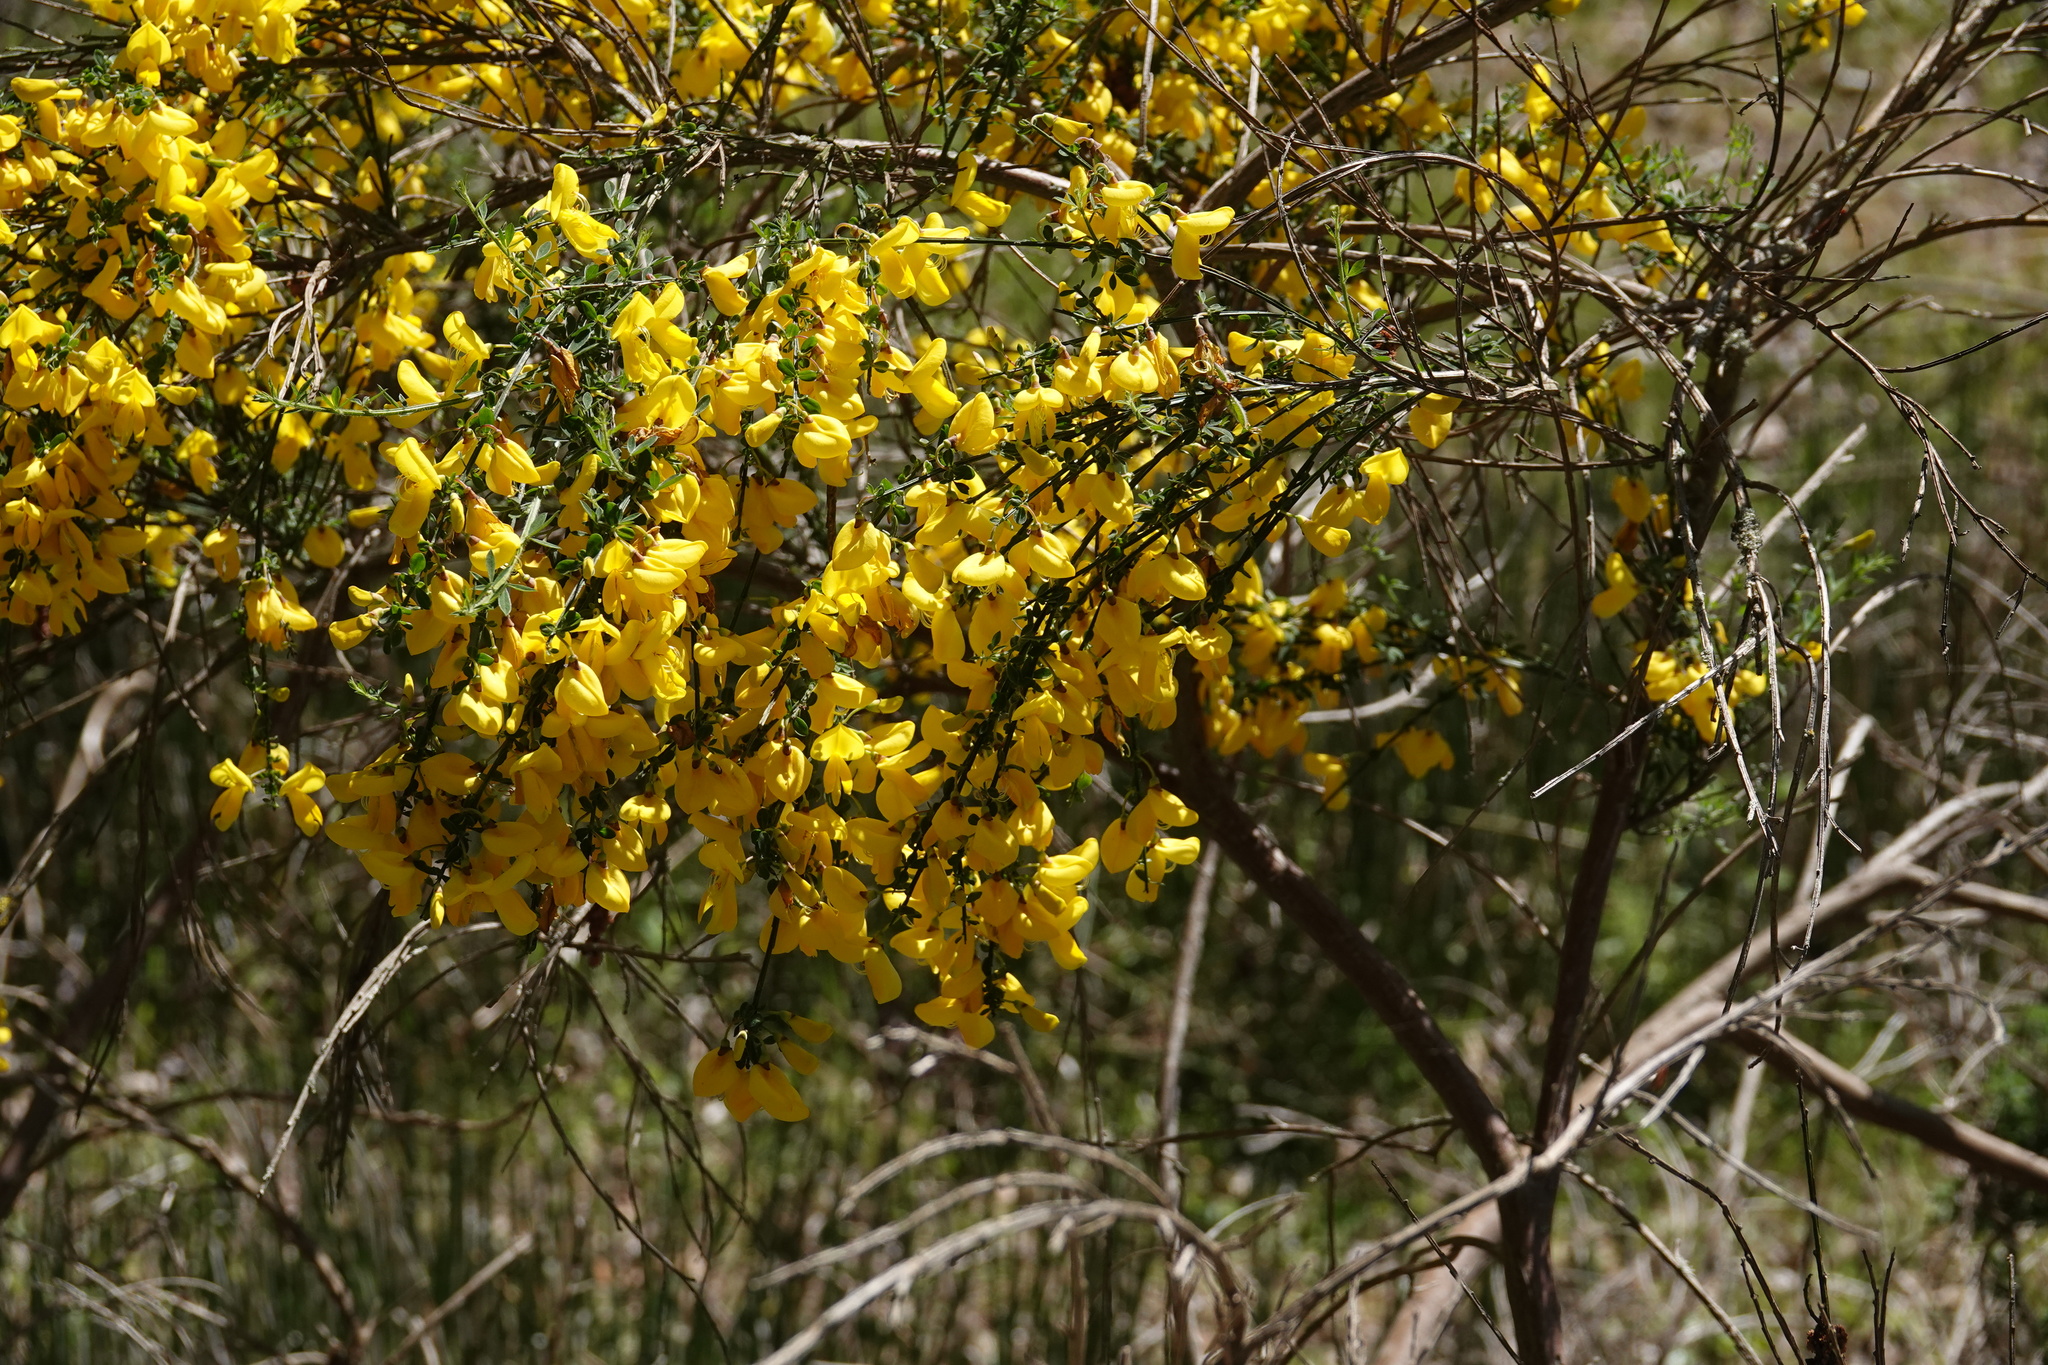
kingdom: Plantae
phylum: Tracheophyta
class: Magnoliopsida
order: Fabales
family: Fabaceae
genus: Cytisus
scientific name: Cytisus scoparius
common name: Scotch broom
